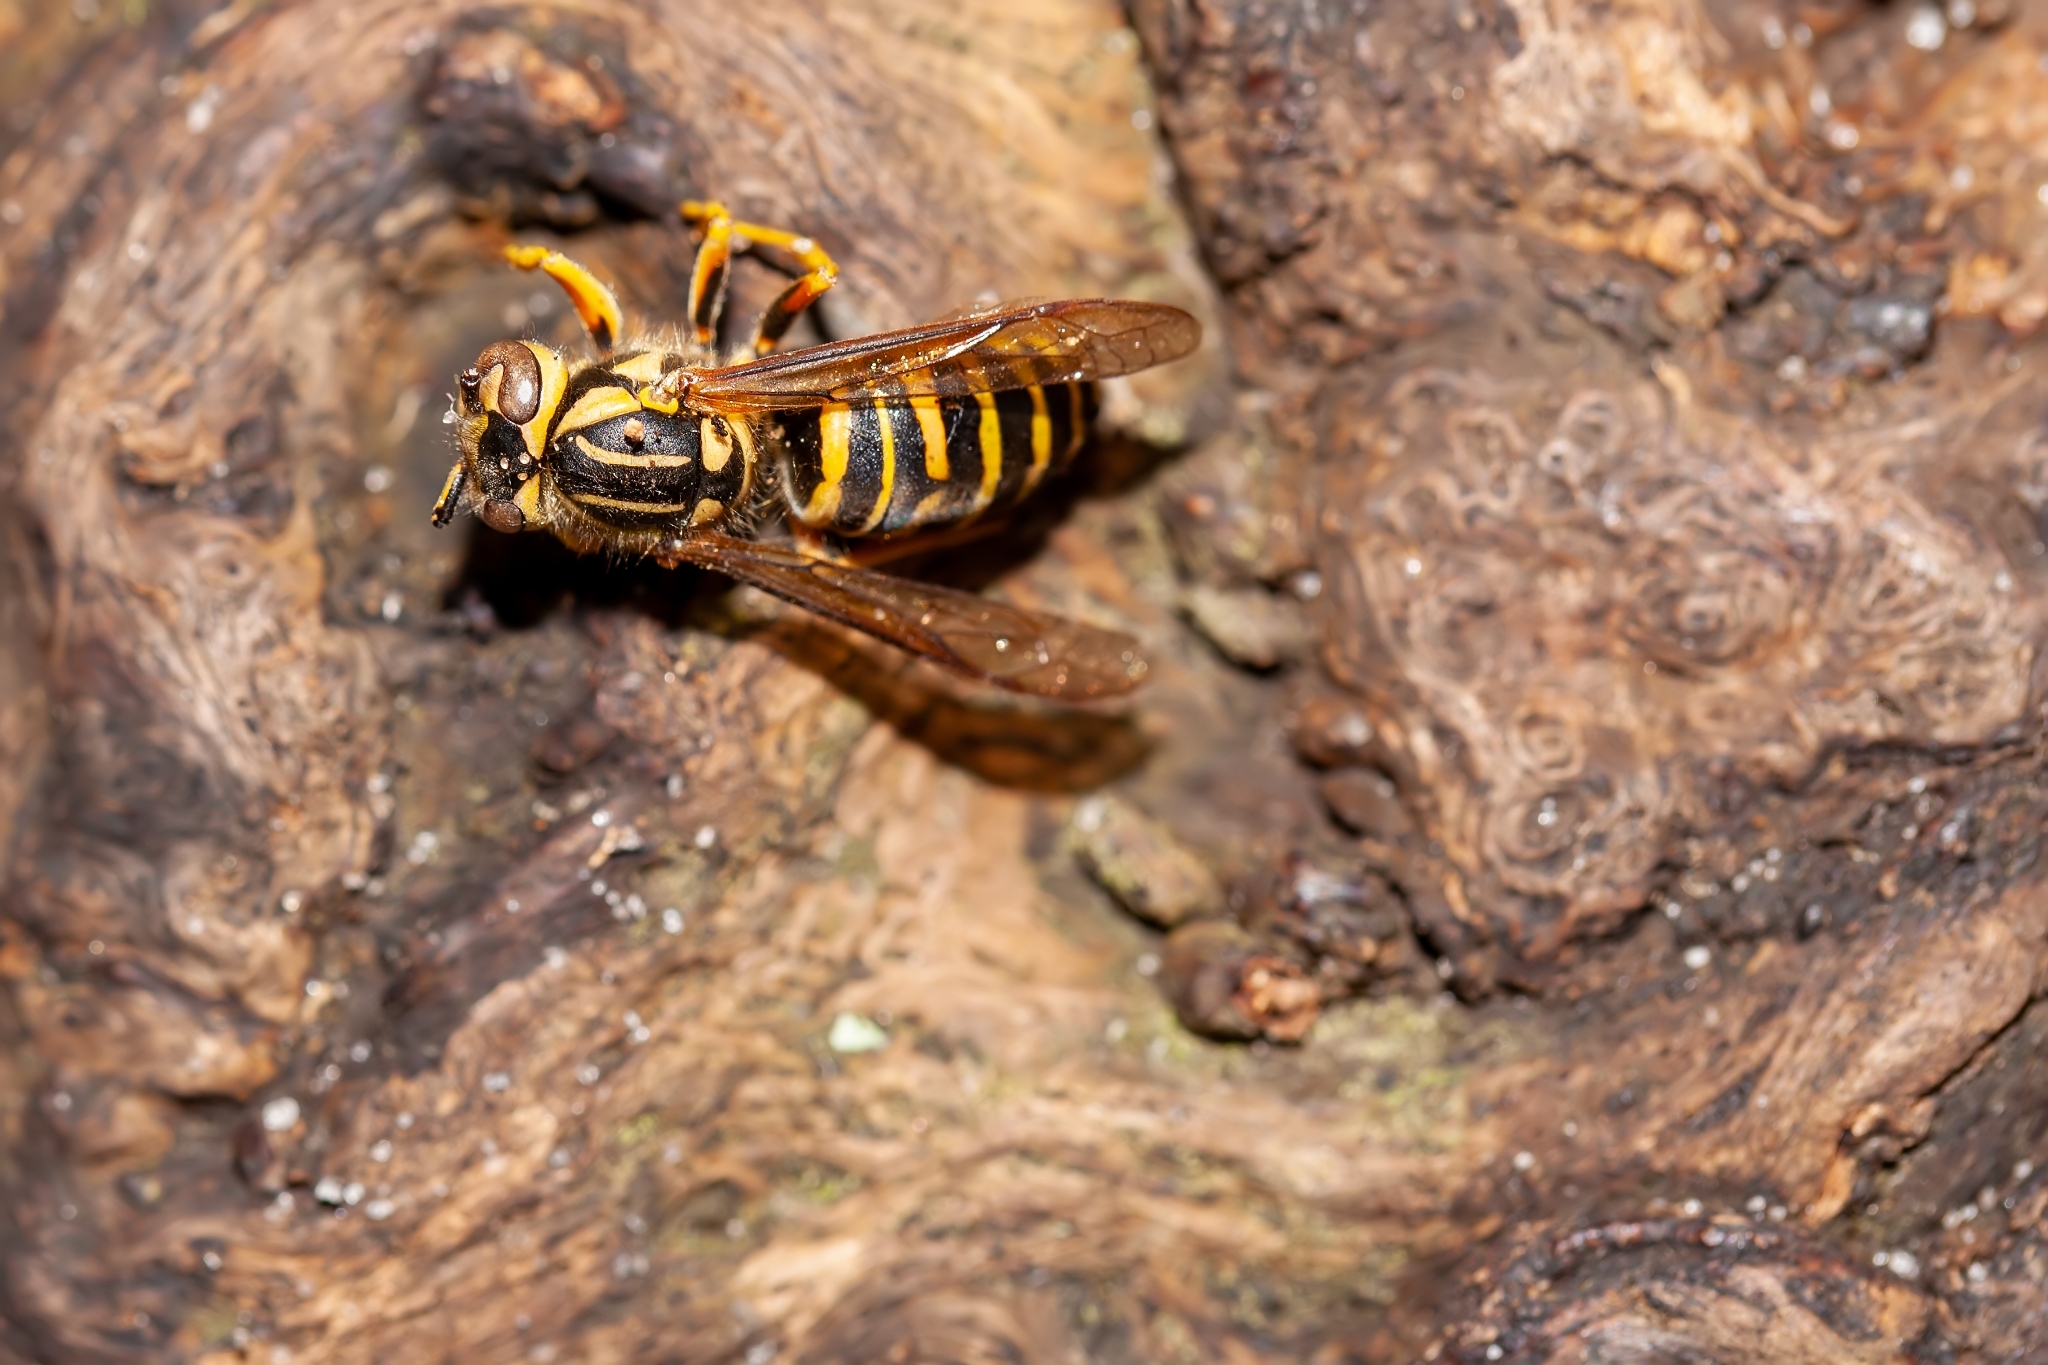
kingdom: Animalia
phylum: Arthropoda
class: Insecta
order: Hymenoptera
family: Vespidae
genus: Vespula
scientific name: Vespula squamosa
